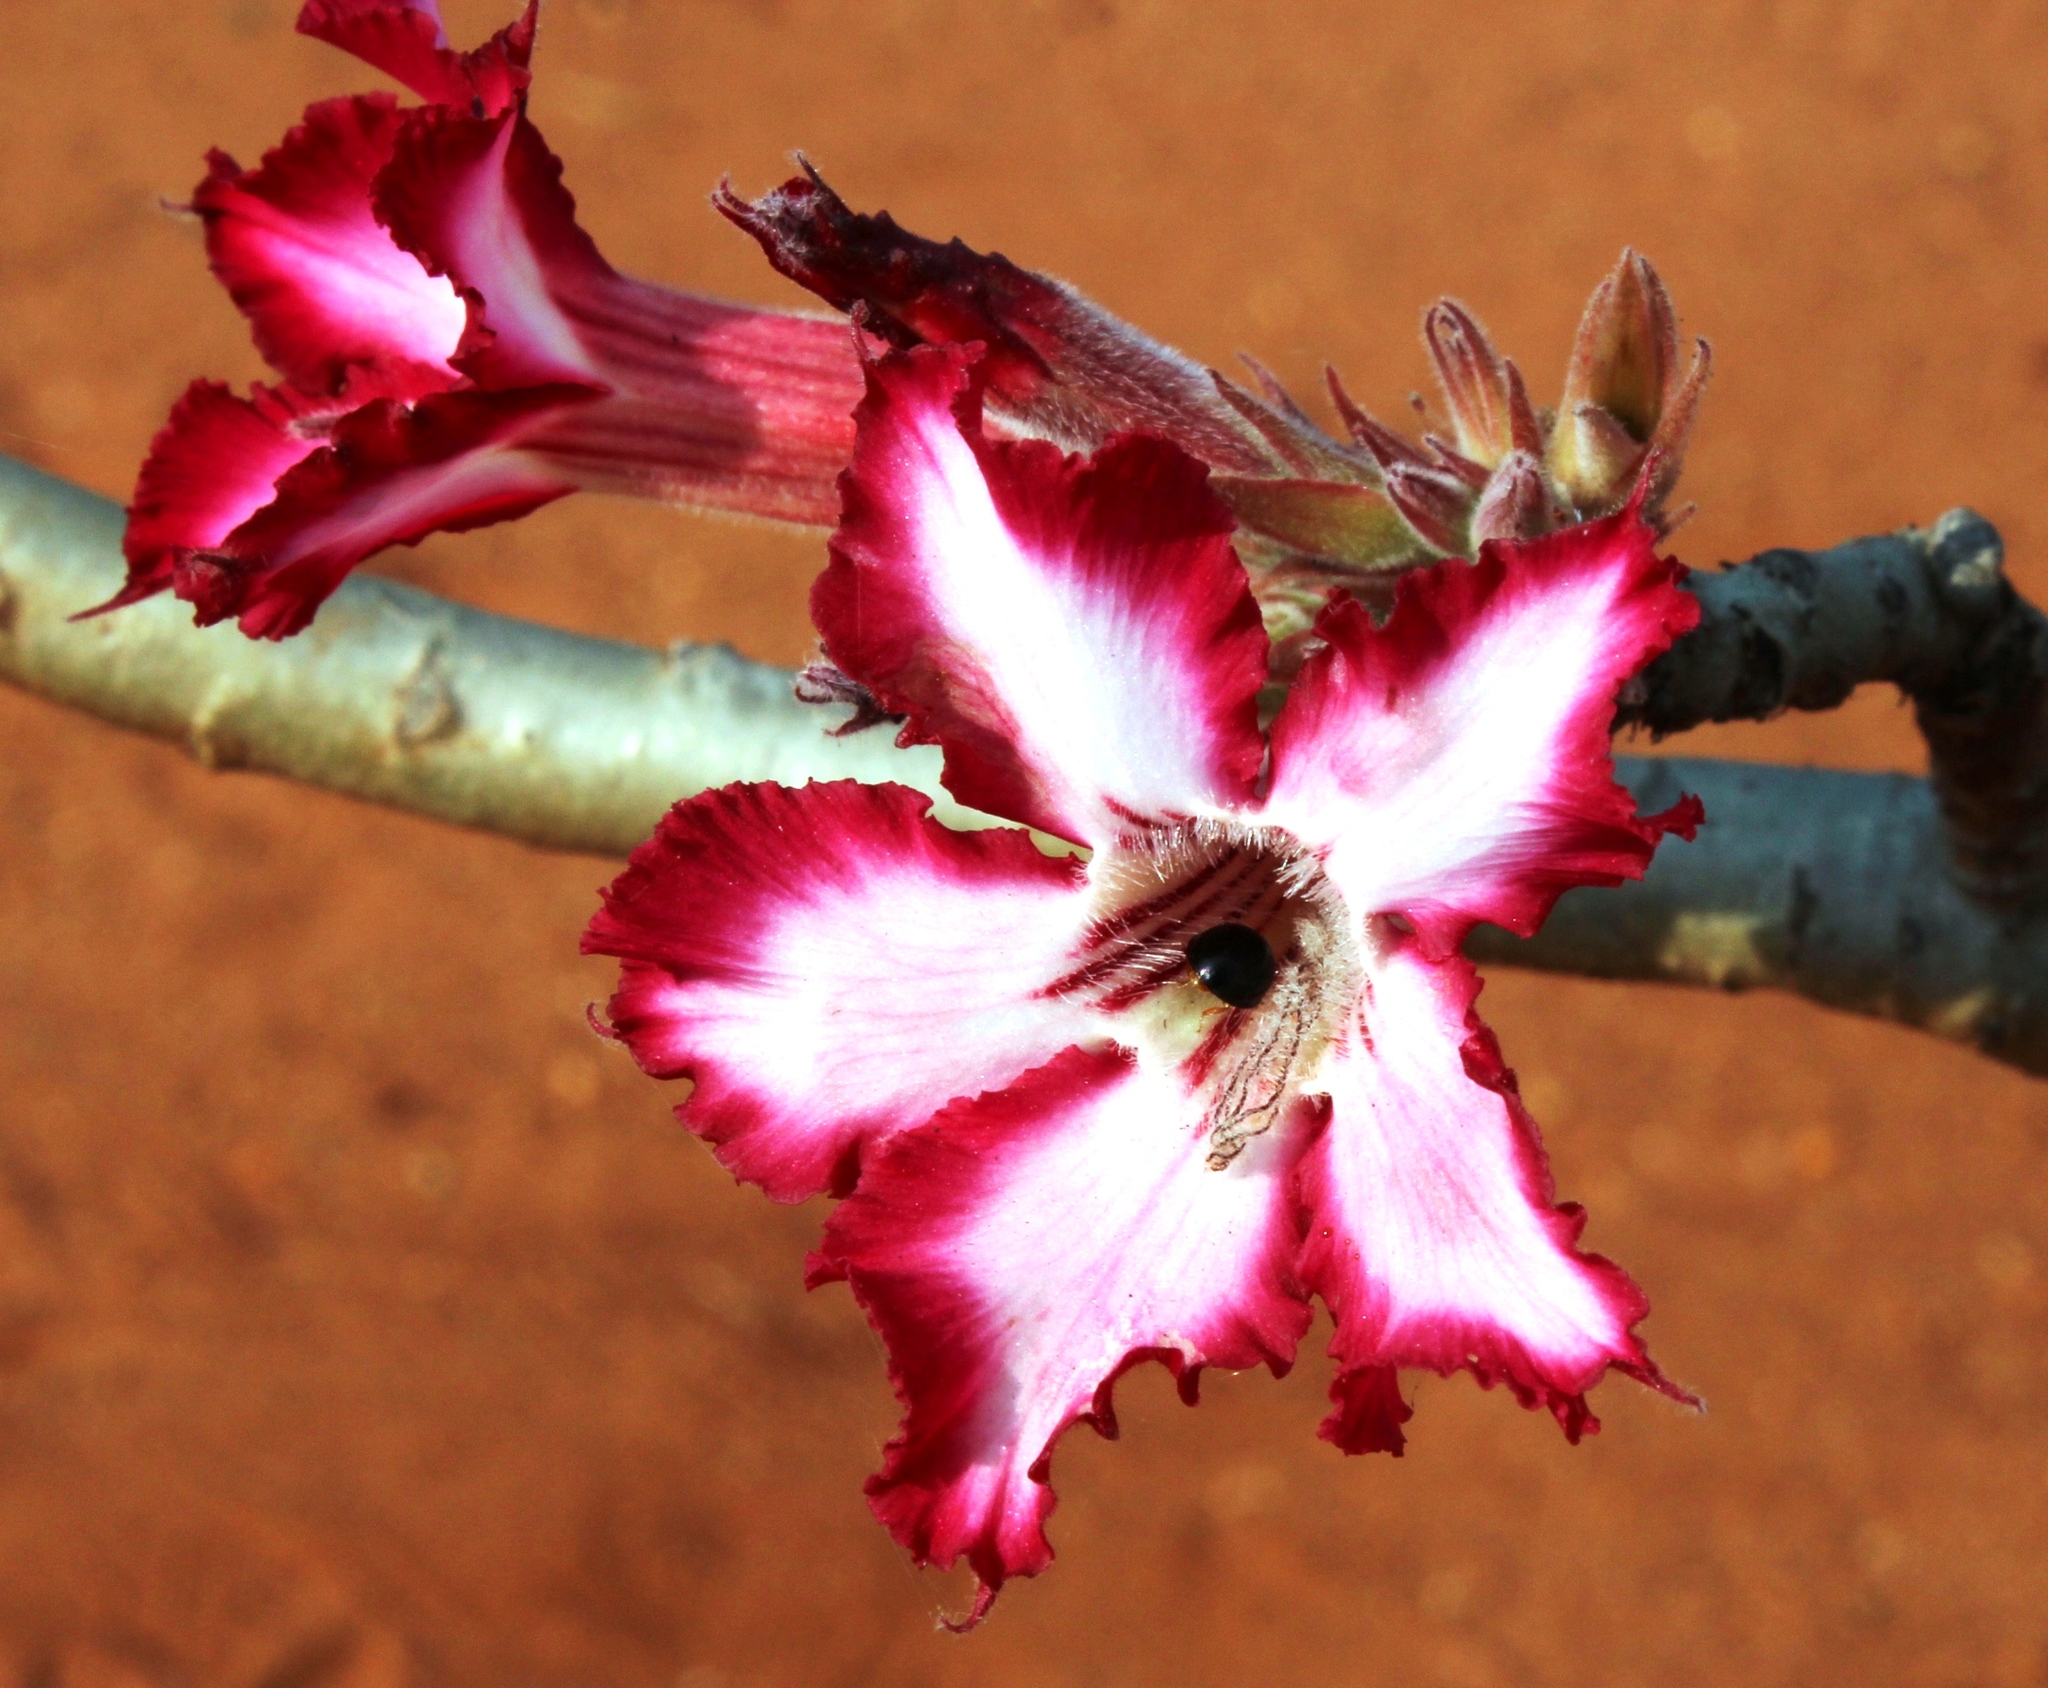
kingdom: Plantae
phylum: Tracheophyta
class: Magnoliopsida
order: Gentianales
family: Apocynaceae
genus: Adenium
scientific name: Adenium obesum
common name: Desert-rose
